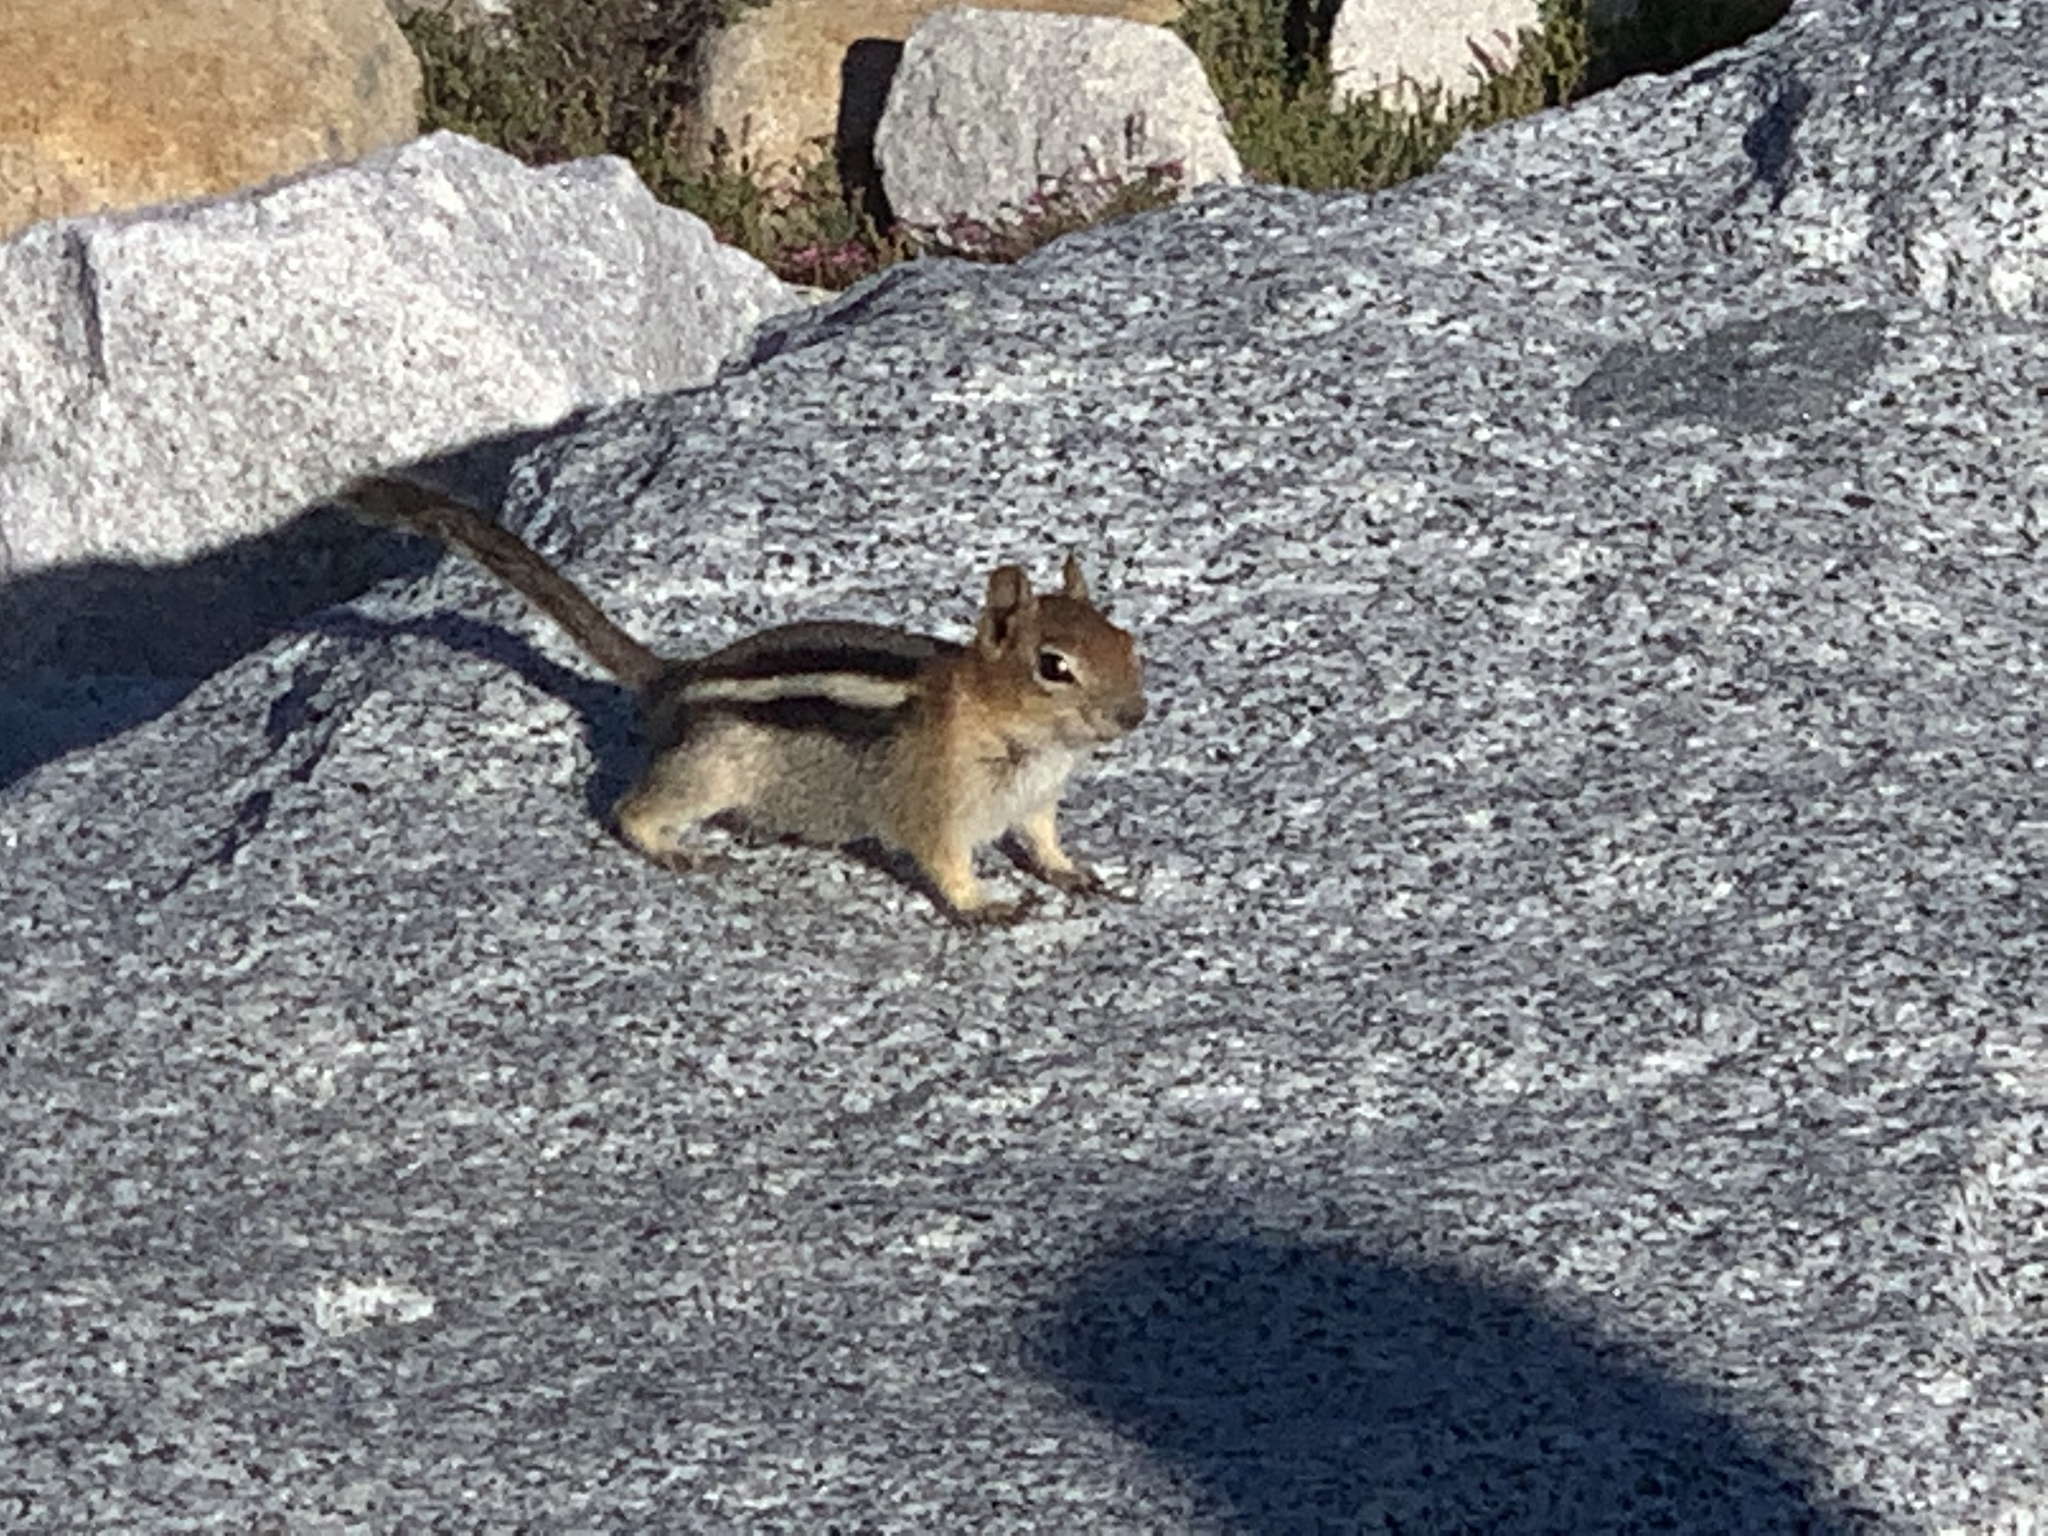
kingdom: Animalia
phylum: Chordata
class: Mammalia
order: Rodentia
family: Sciuridae
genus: Callospermophilus
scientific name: Callospermophilus lateralis
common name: Golden-mantled ground squirrel
